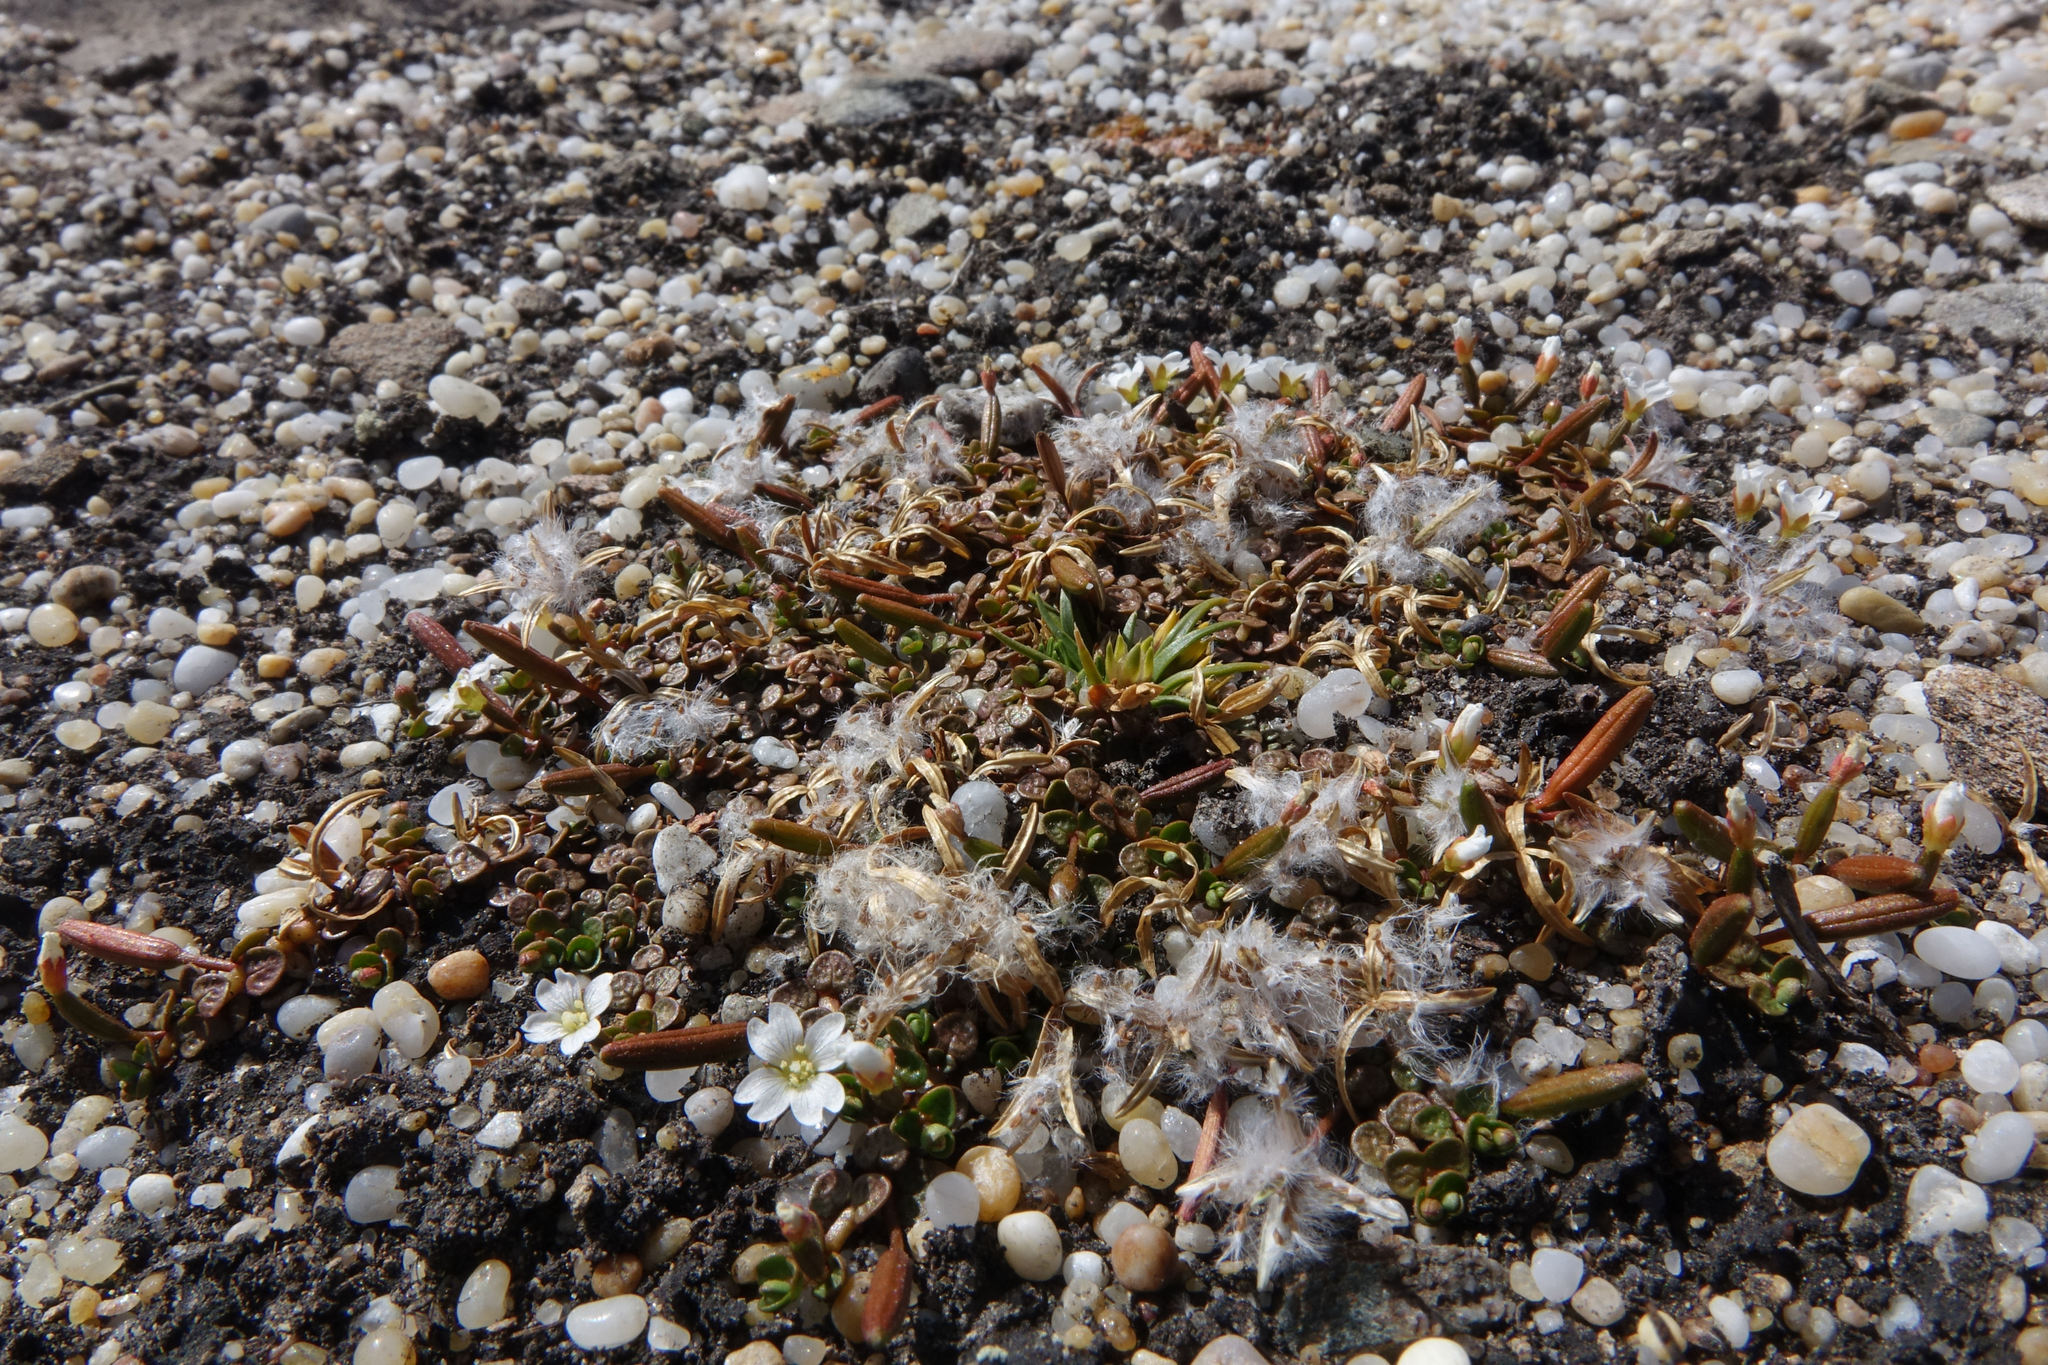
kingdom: Plantae
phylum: Tracheophyta
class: Magnoliopsida
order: Myrtales
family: Onagraceae
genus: Epilobium
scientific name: Epilobium komarovianum
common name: Bronzy willowherb
